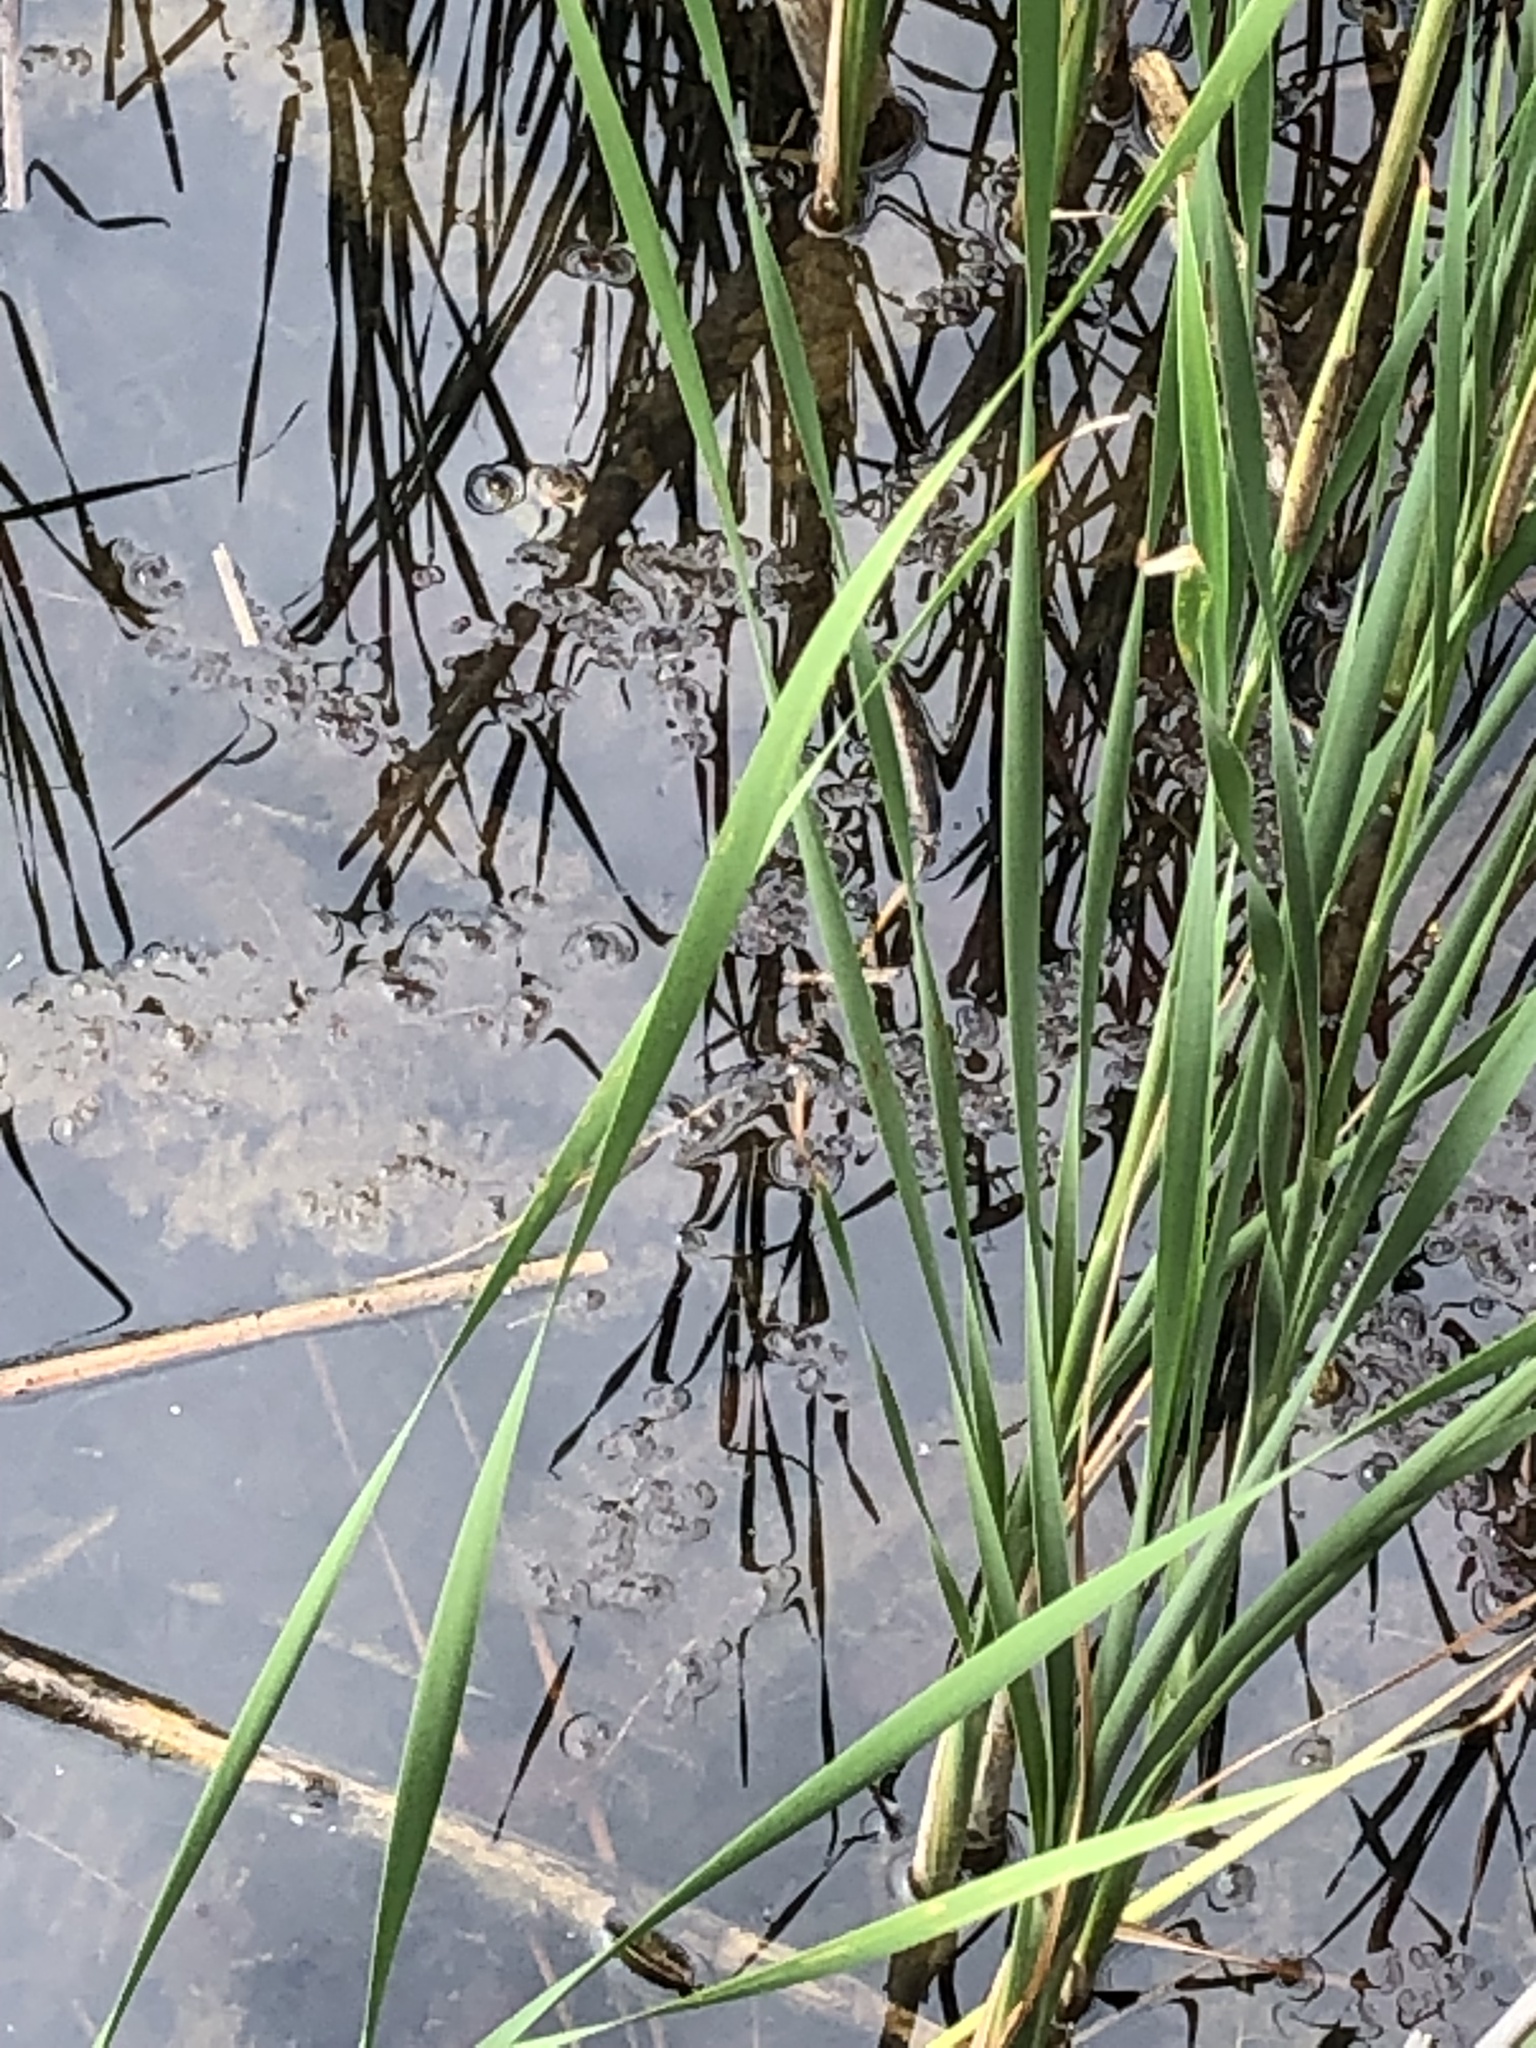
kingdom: Plantae
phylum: Tracheophyta
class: Liliopsida
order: Poales
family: Typhaceae
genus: Typha
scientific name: Typha angustifolia
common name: Lesser bulrush
